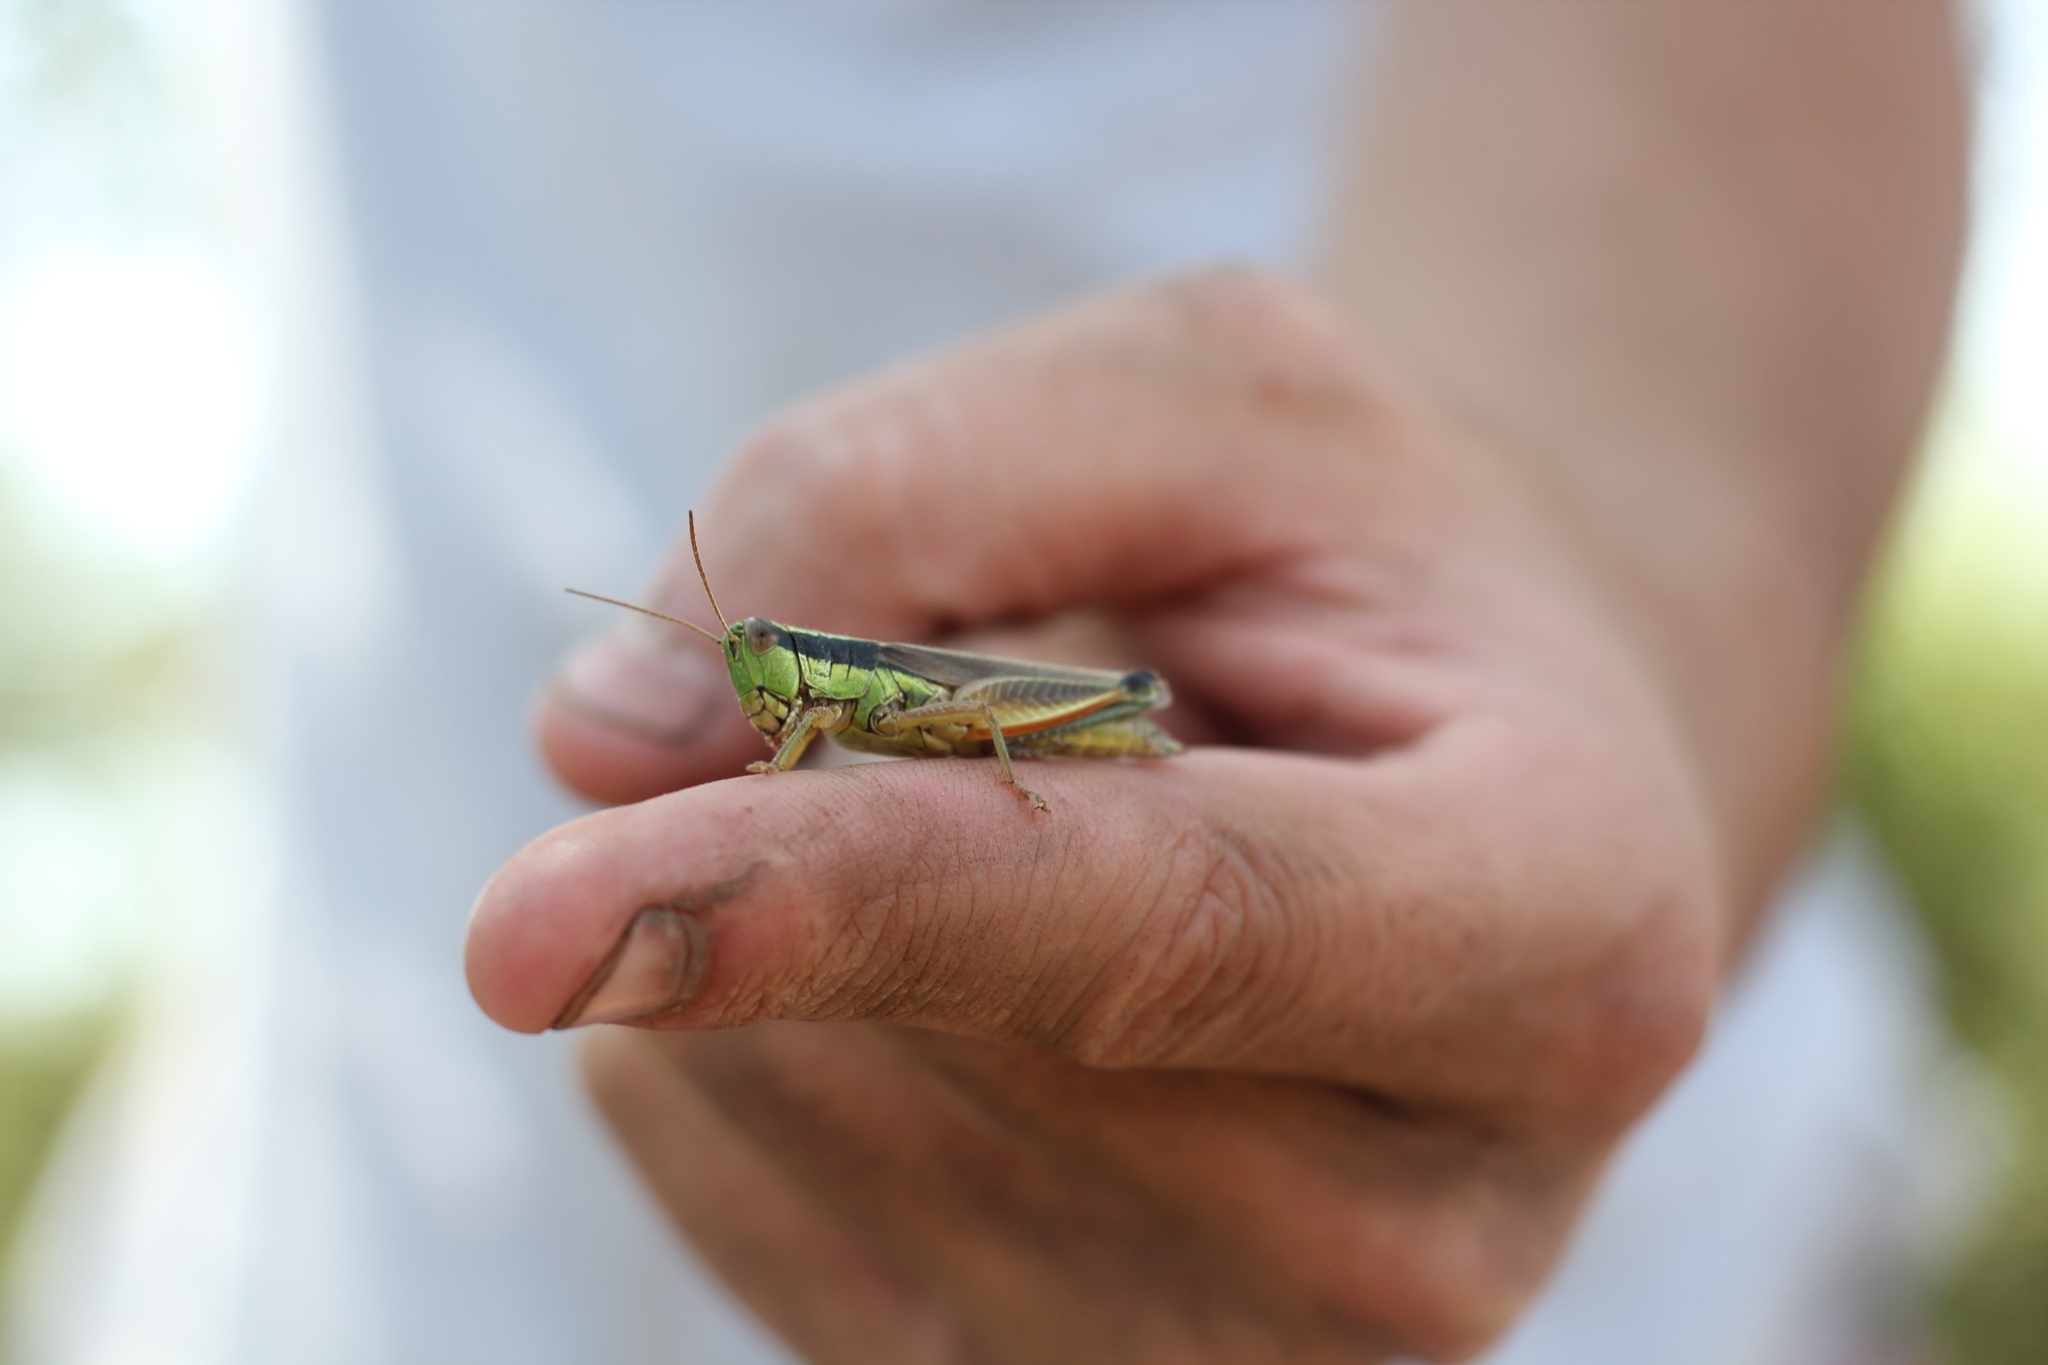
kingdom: Animalia
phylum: Arthropoda
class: Insecta
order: Orthoptera
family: Acrididae
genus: Scotussa
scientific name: Scotussa impudica
